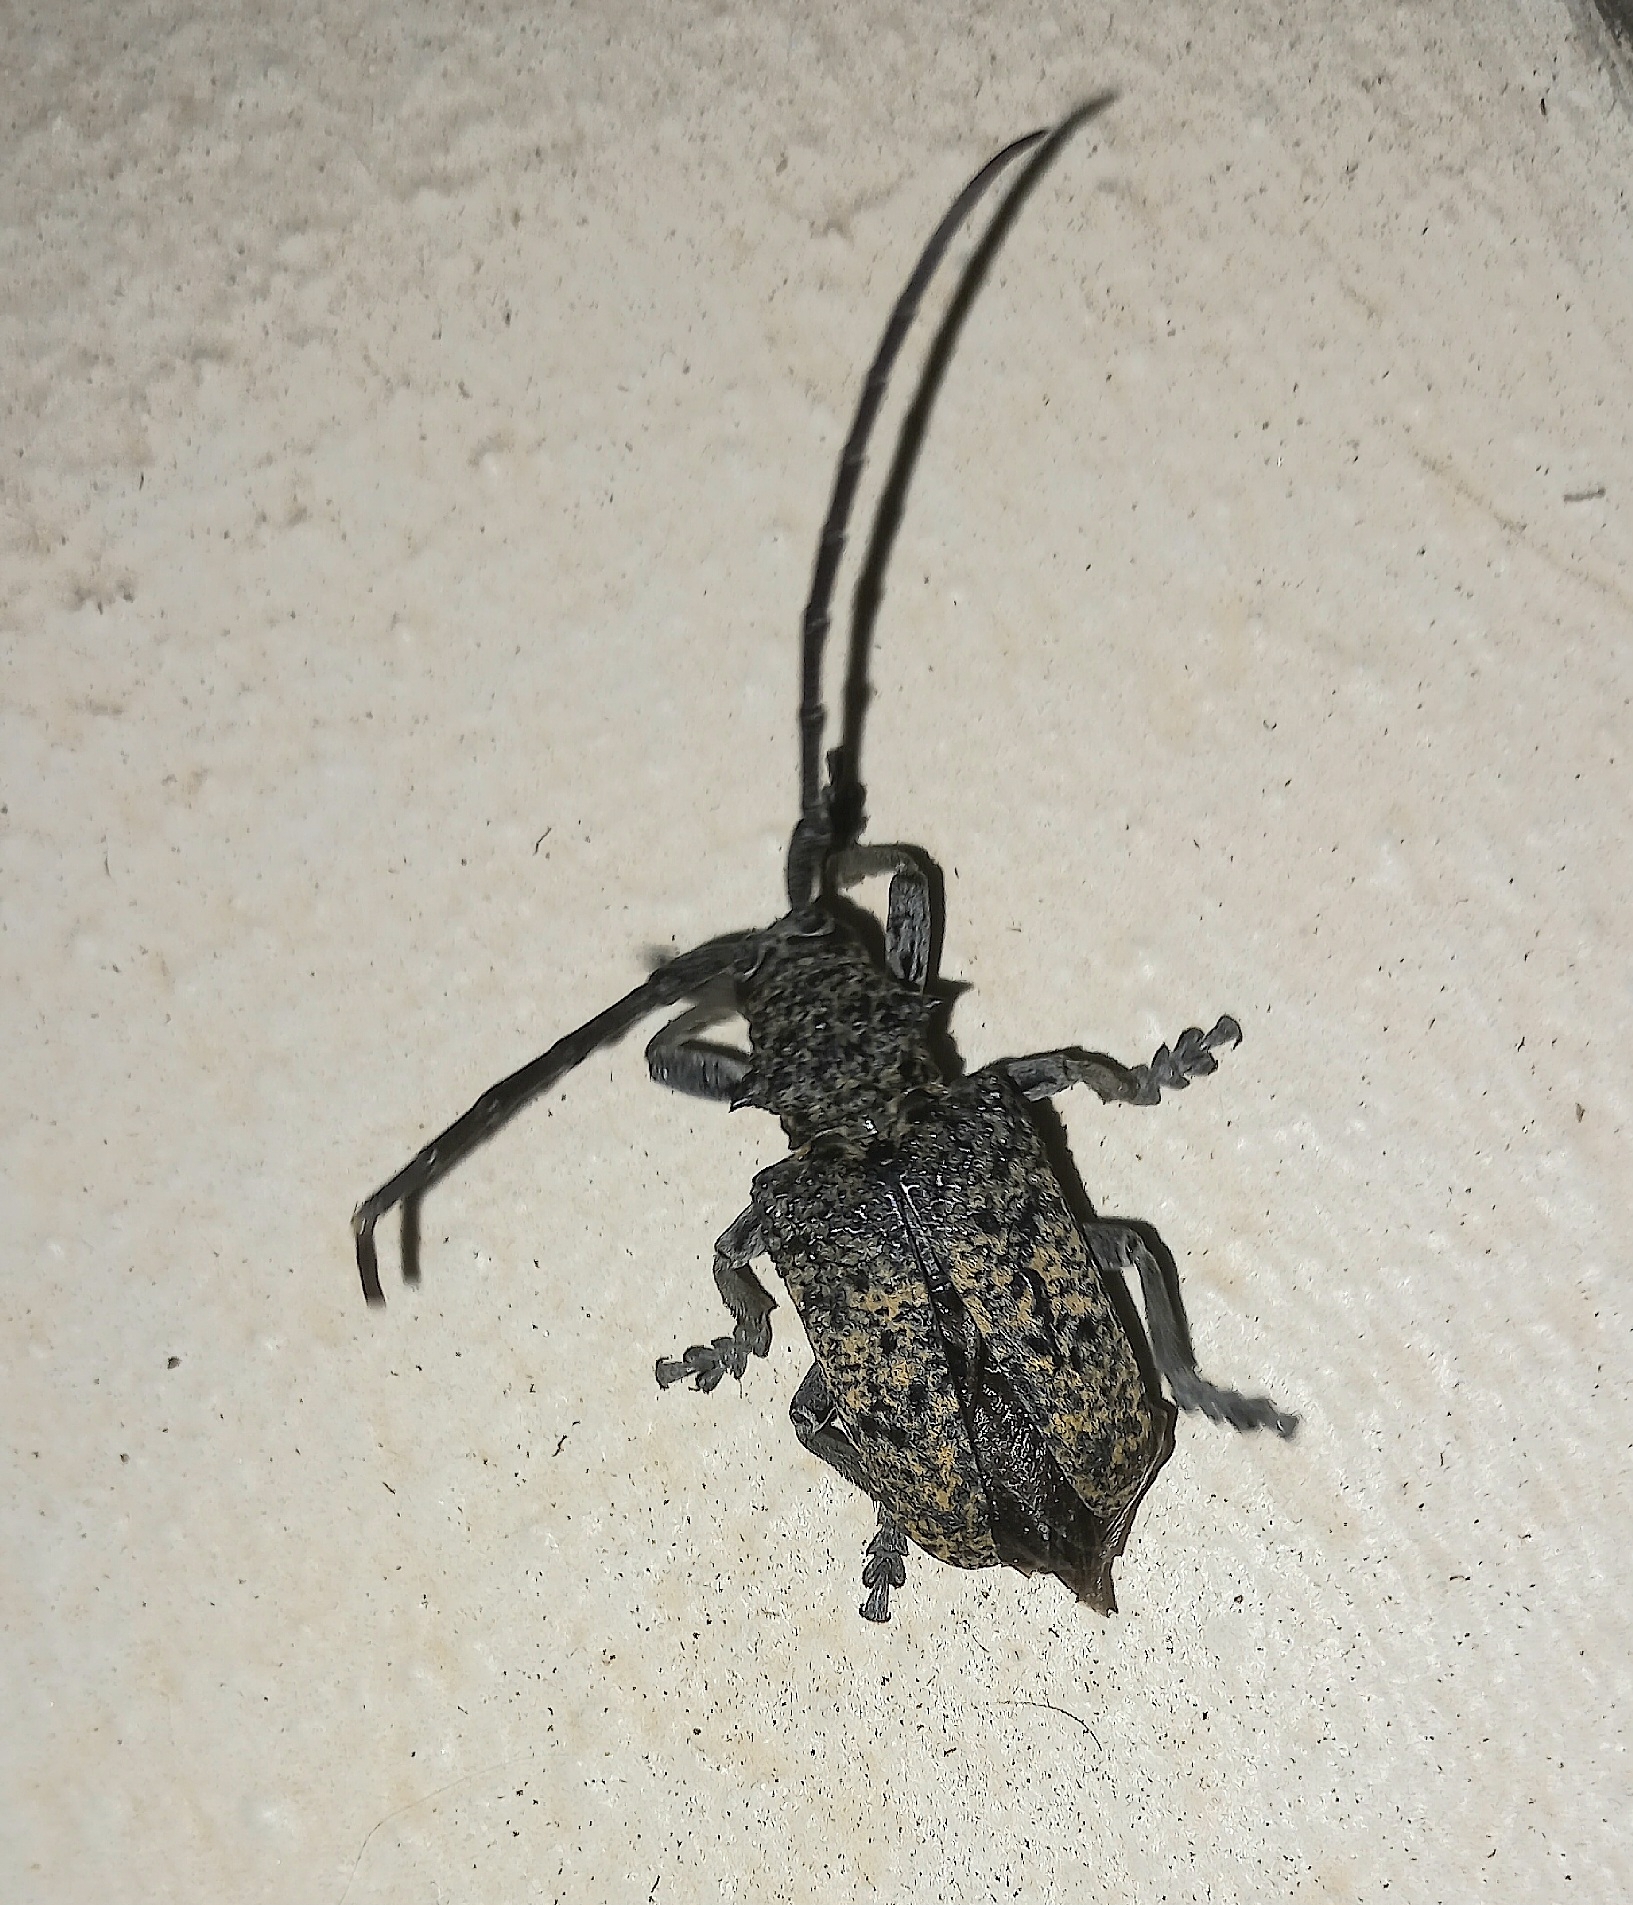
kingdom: Animalia
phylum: Arthropoda
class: Insecta
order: Coleoptera
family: Cerambycidae
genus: Phryneta
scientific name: Phryneta spinator
